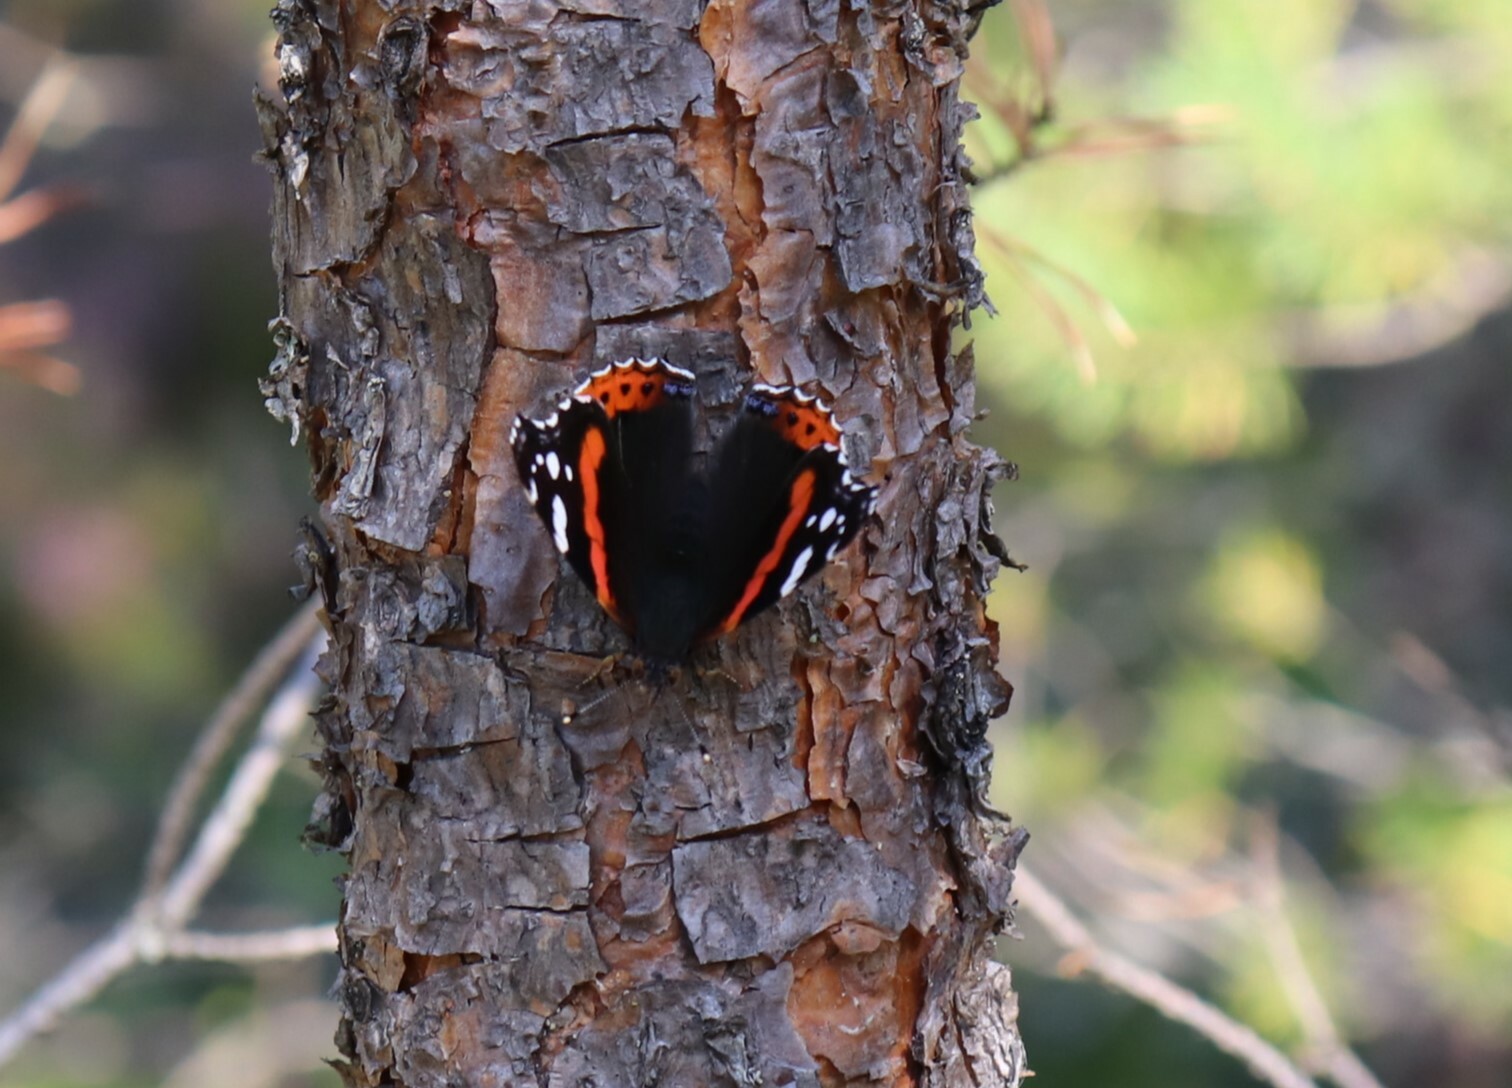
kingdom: Animalia
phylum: Arthropoda
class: Insecta
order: Lepidoptera
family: Nymphalidae
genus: Vanessa
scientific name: Vanessa atalanta
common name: Red admiral
